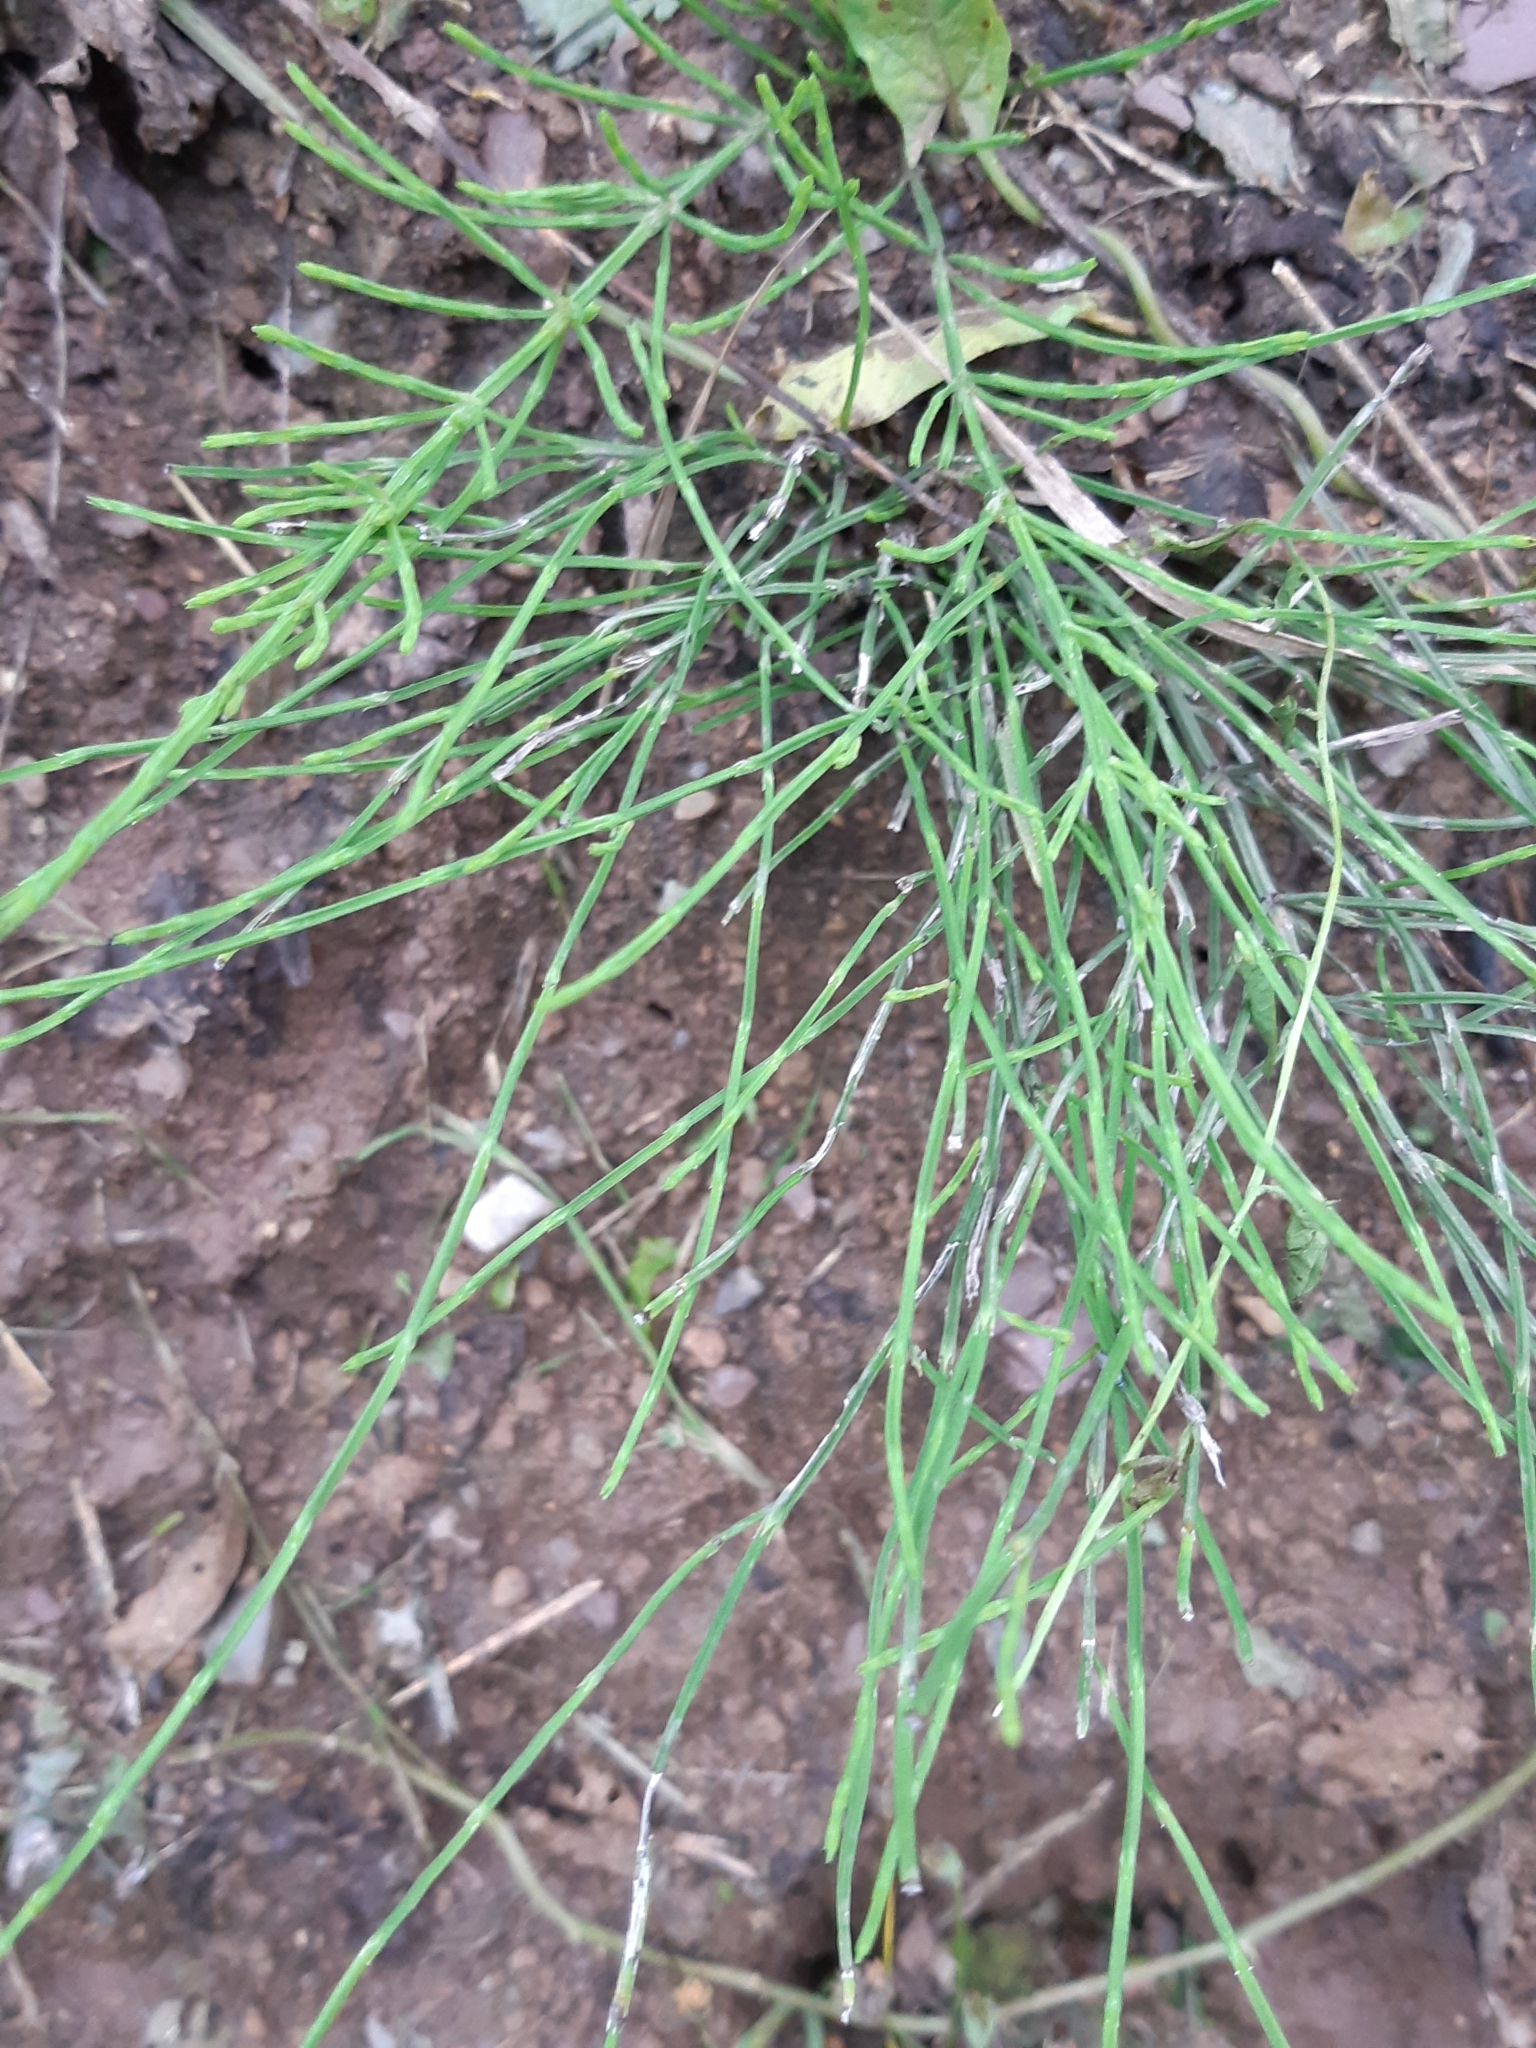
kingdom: Plantae
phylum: Tracheophyta
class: Polypodiopsida
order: Equisetales
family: Equisetaceae
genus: Equisetum
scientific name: Equisetum arvense
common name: Field horsetail
